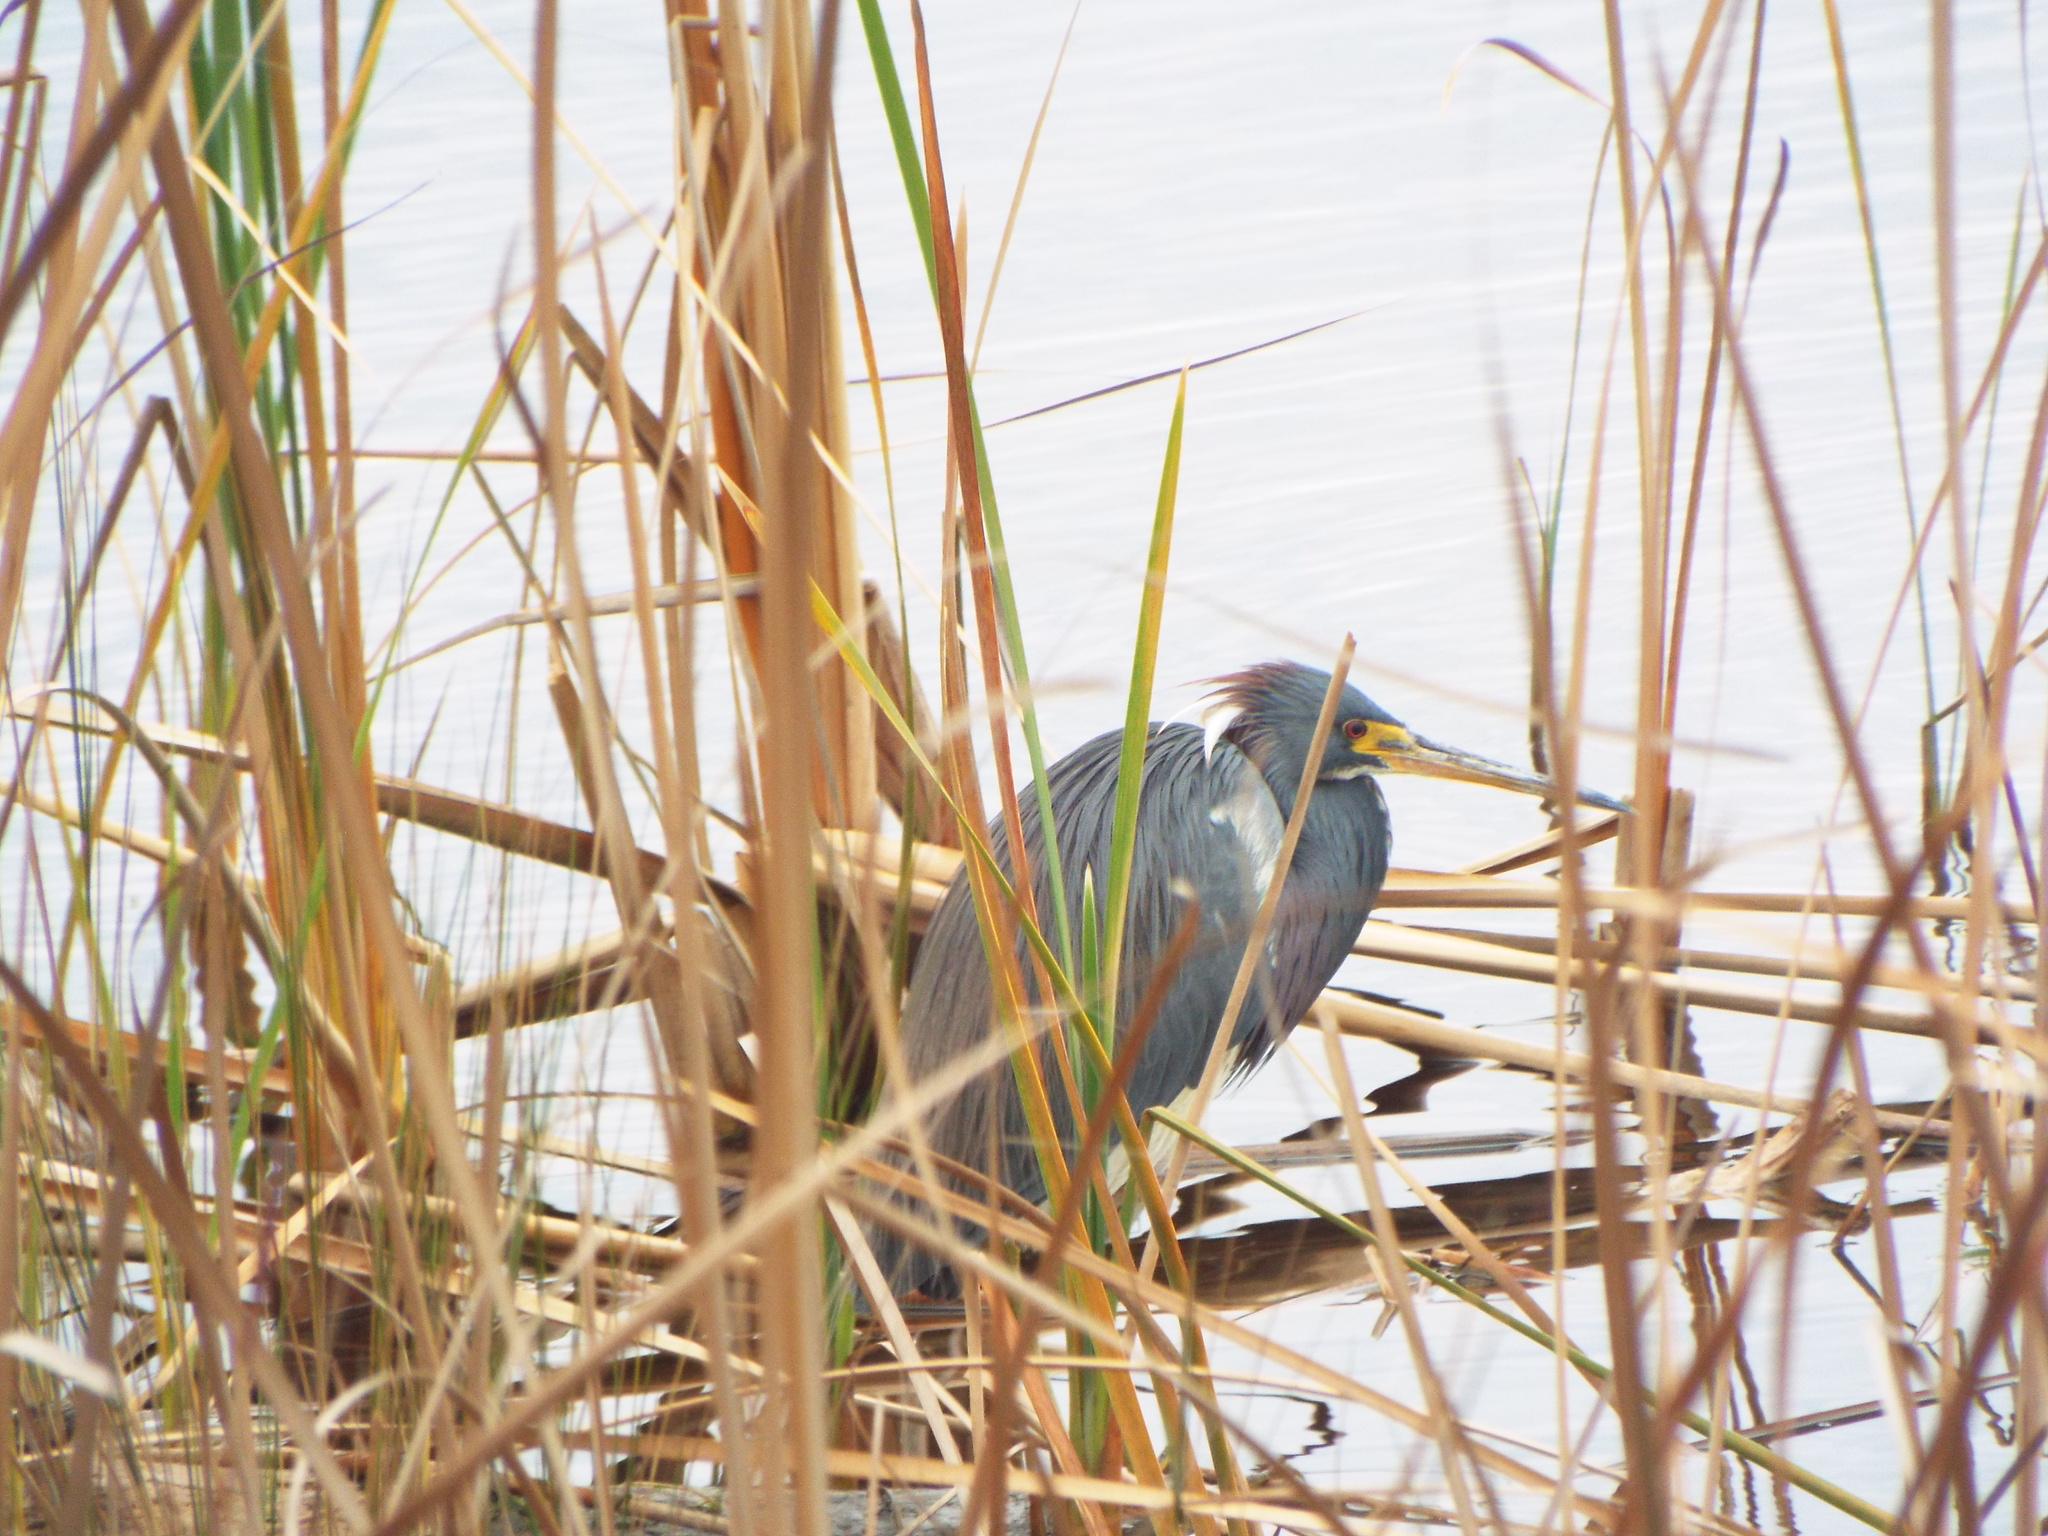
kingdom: Animalia
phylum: Chordata
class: Aves
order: Pelecaniformes
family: Ardeidae
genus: Egretta
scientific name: Egretta tricolor
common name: Tricolored heron
